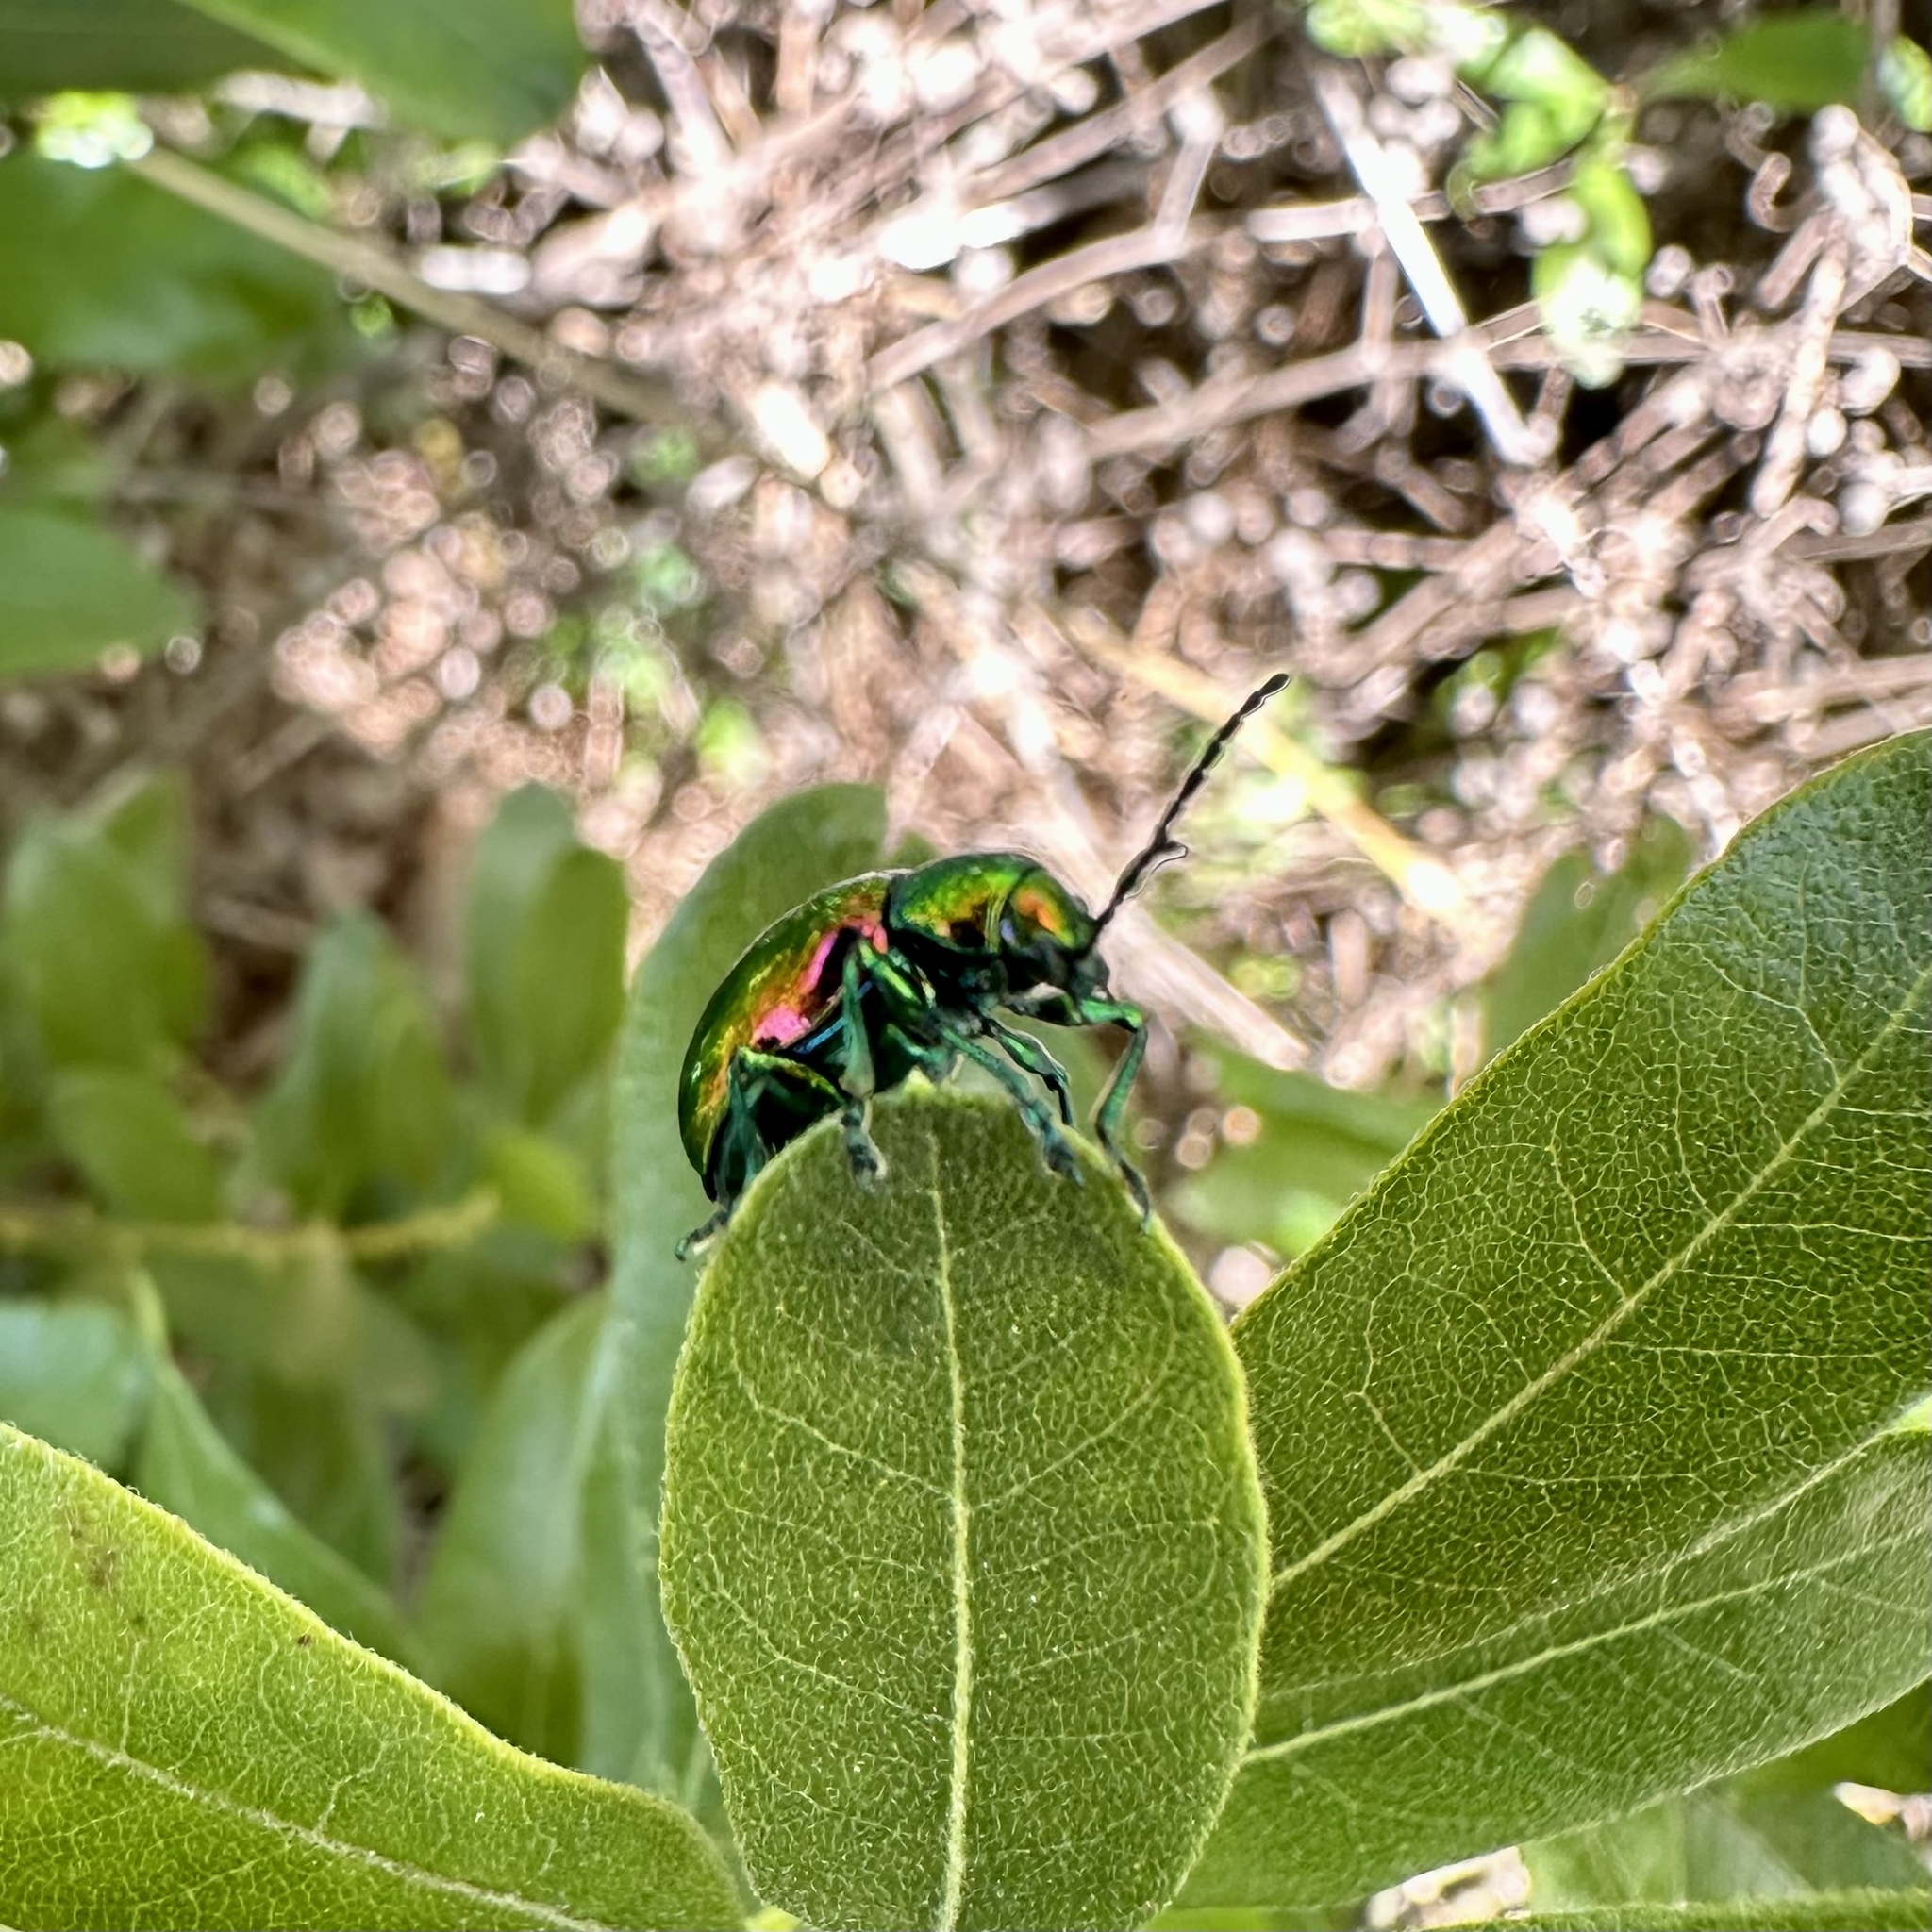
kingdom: Animalia
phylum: Arthropoda
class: Insecta
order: Coleoptera
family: Chrysomelidae
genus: Chrysochus
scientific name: Chrysochus auratus
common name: Dogbane leaf beetle
